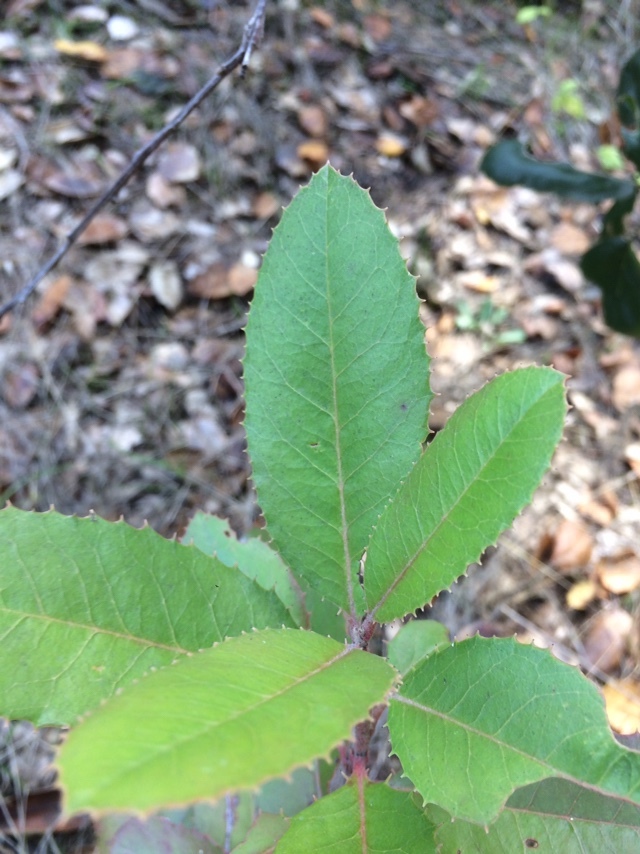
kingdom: Plantae
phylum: Tracheophyta
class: Magnoliopsida
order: Rosales
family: Rosaceae
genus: Heteromeles
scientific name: Heteromeles arbutifolia
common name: California-holly
